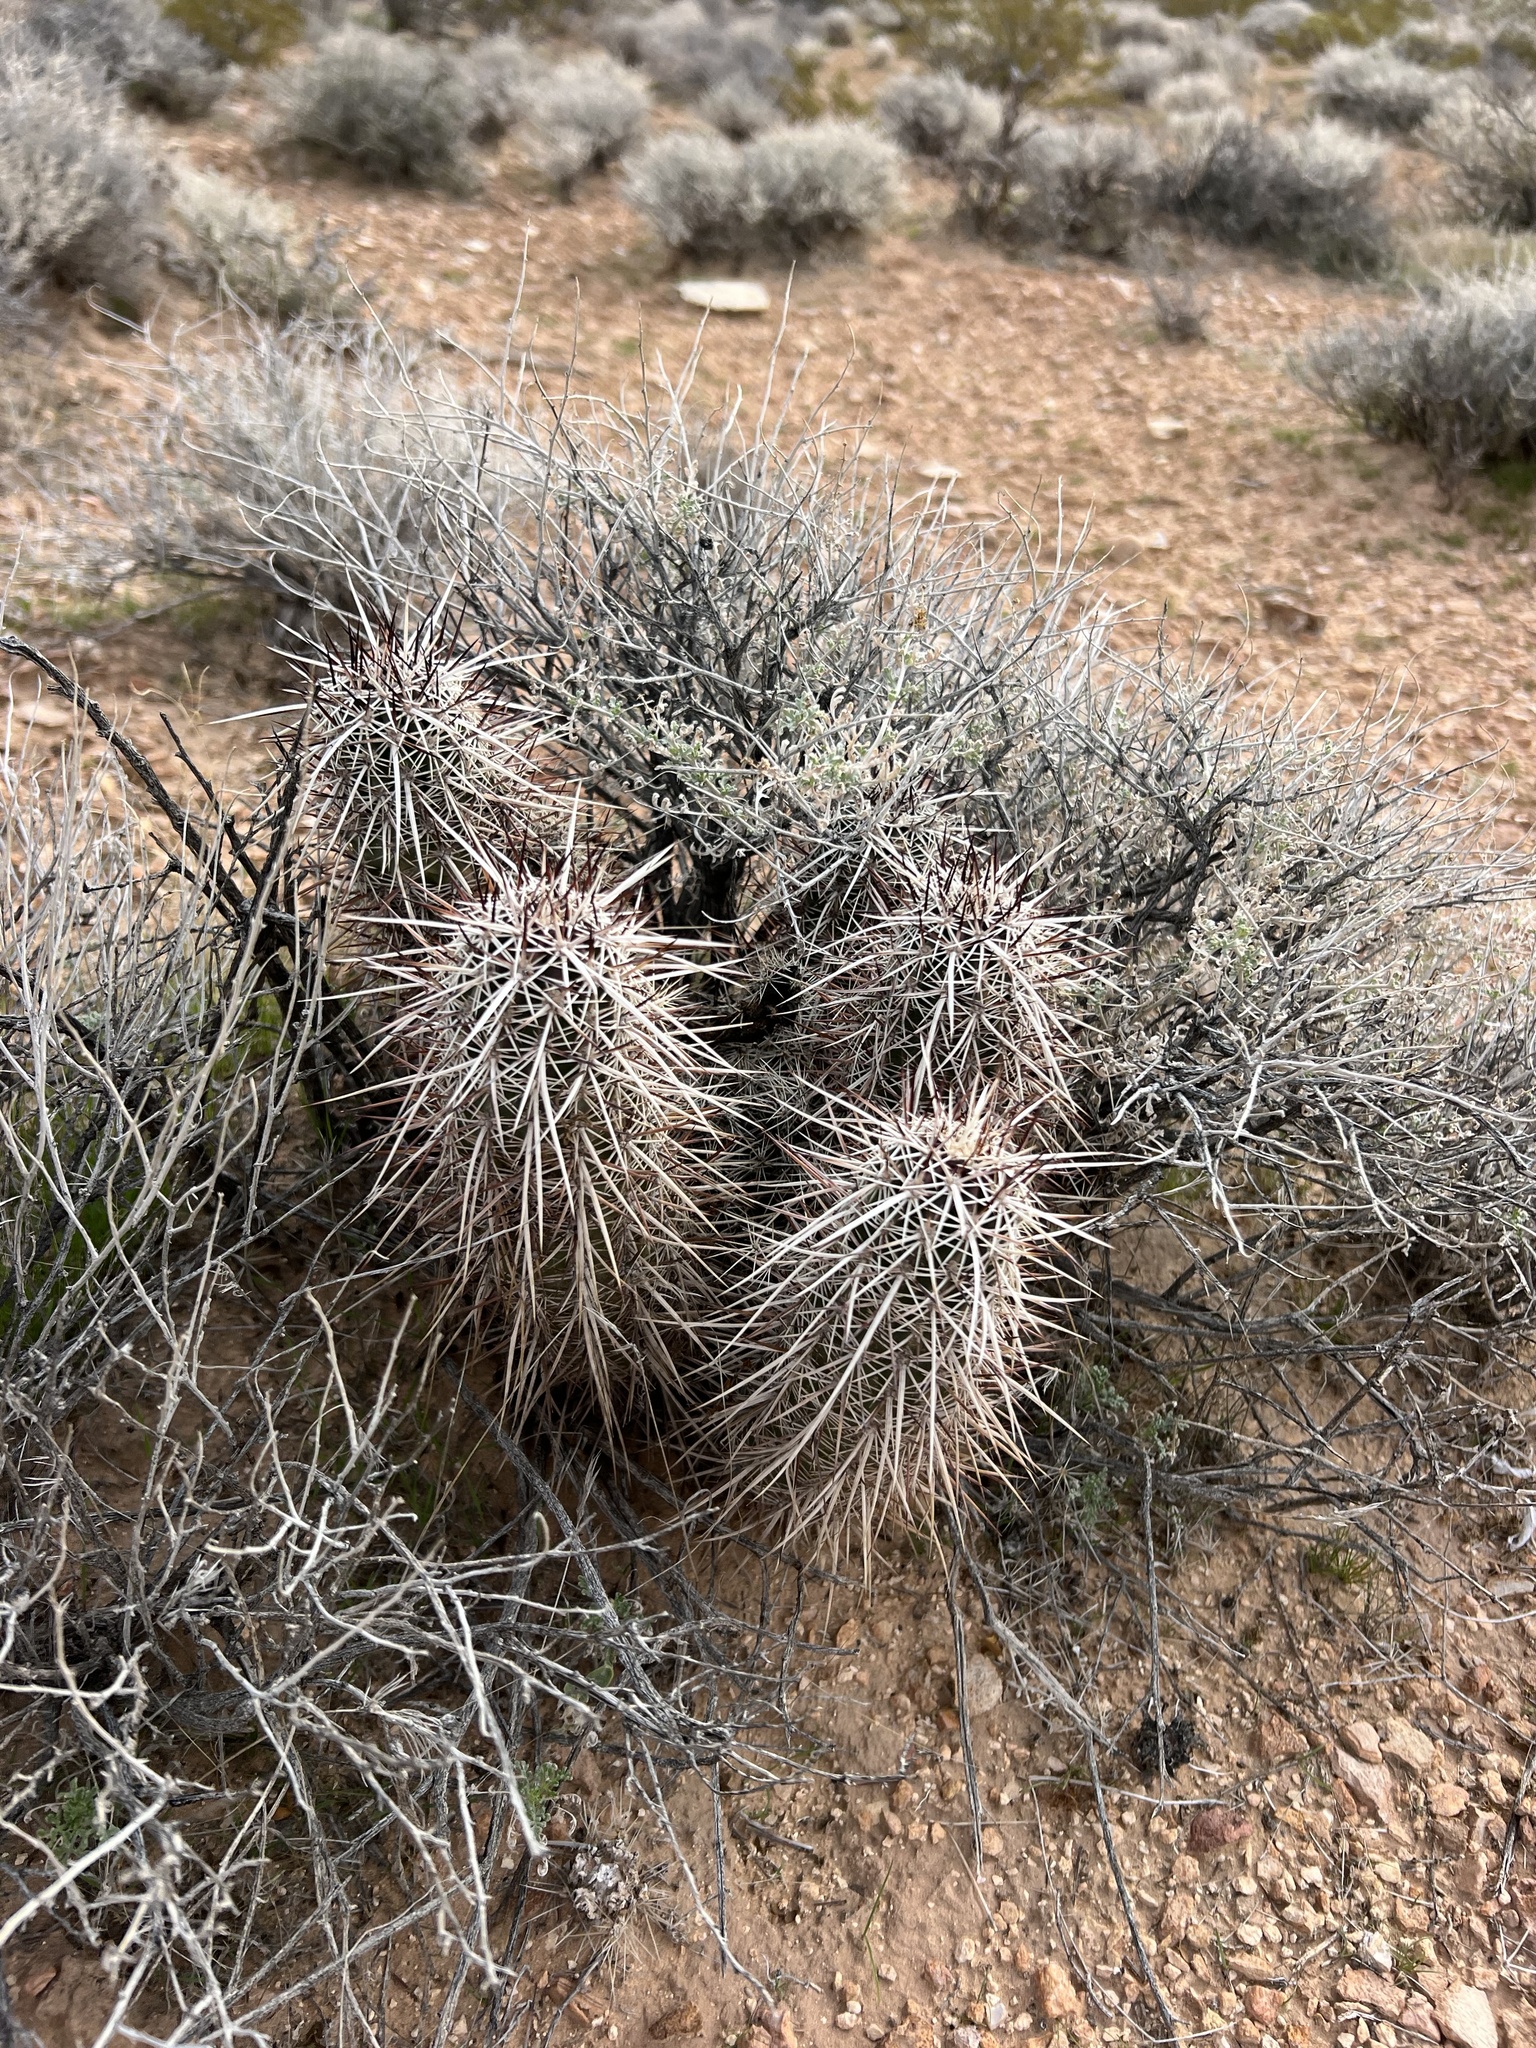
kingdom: Plantae
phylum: Tracheophyta
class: Magnoliopsida
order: Caryophyllales
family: Cactaceae
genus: Echinocereus
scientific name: Echinocereus engelmannii
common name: Engelmann's hedgehog cactus
